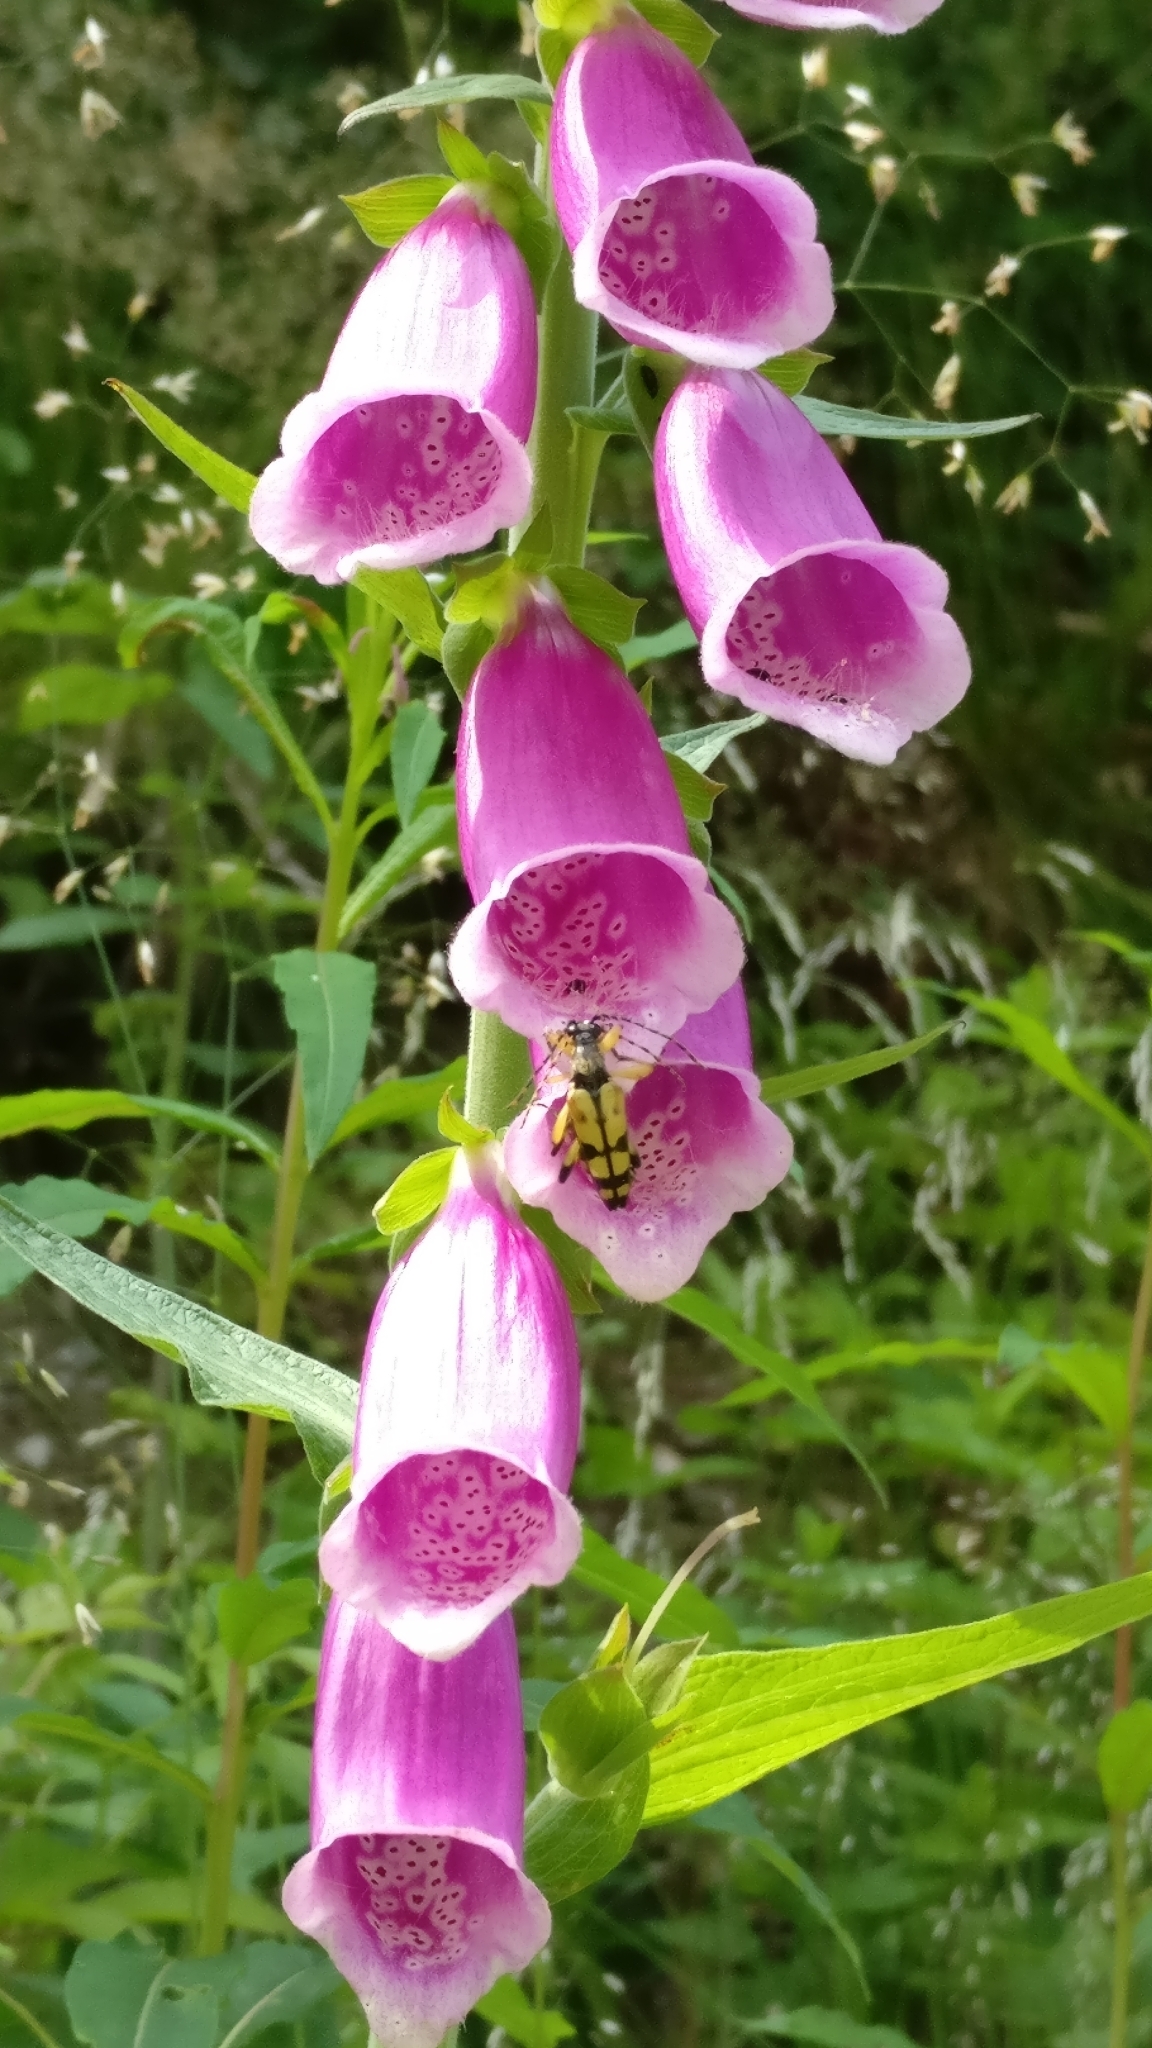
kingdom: Animalia
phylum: Arthropoda
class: Insecta
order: Coleoptera
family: Cerambycidae
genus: Rutpela
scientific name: Rutpela maculata
